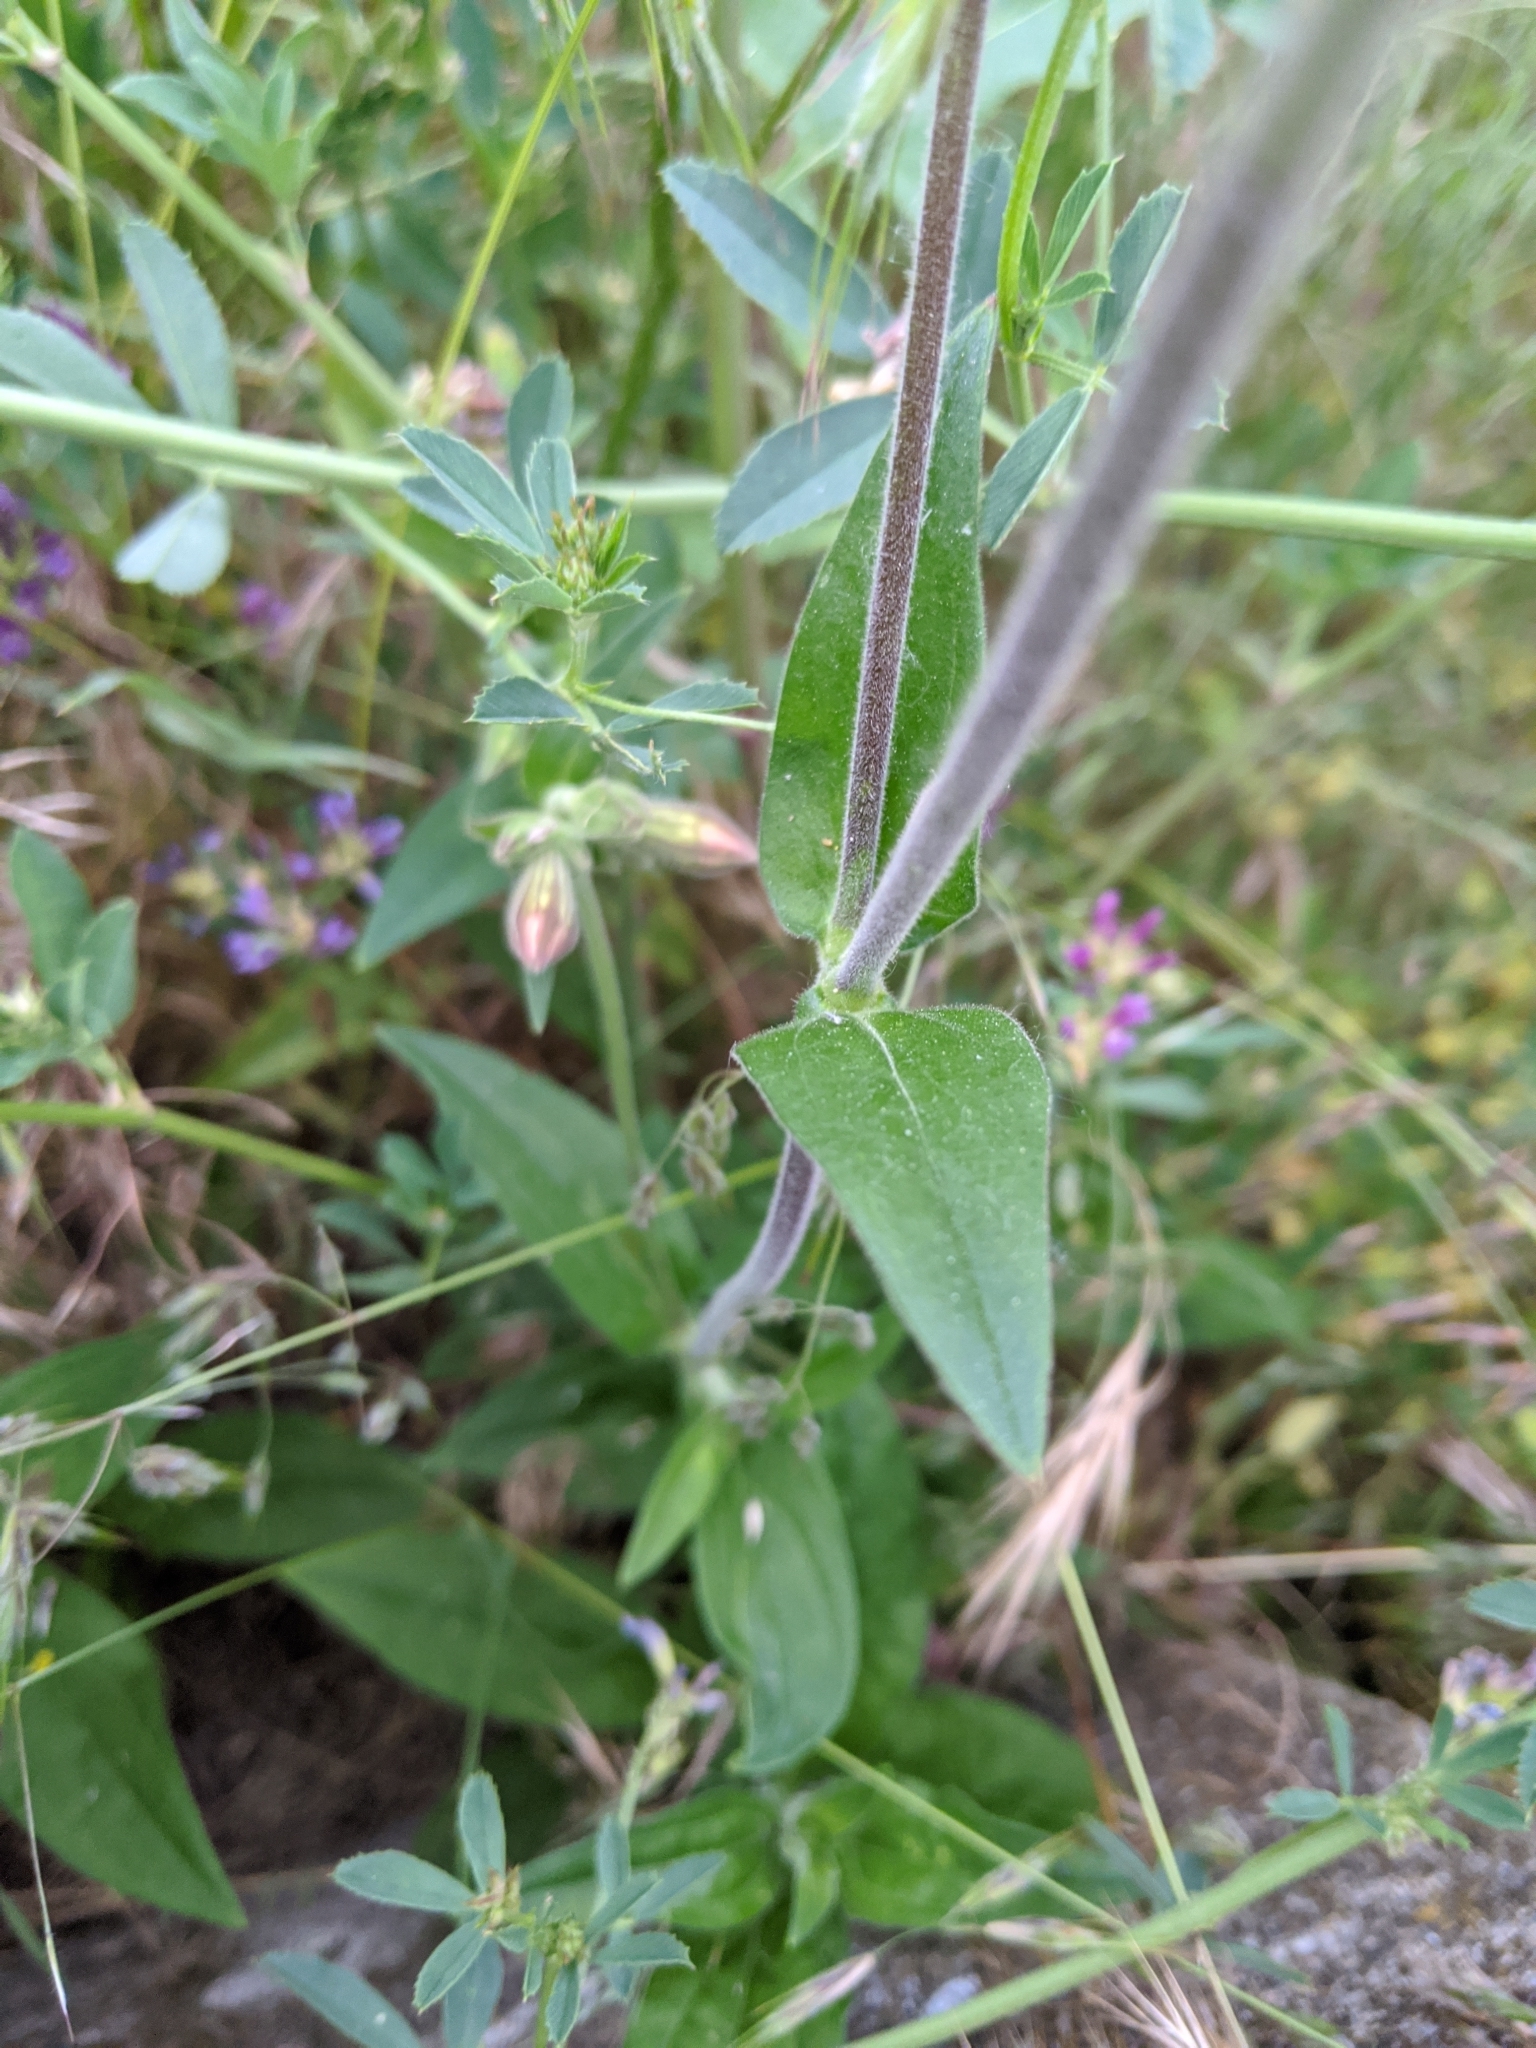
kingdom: Plantae
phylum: Tracheophyta
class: Magnoliopsida
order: Caryophyllales
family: Caryophyllaceae
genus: Silene
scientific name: Silene latifolia
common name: White campion
